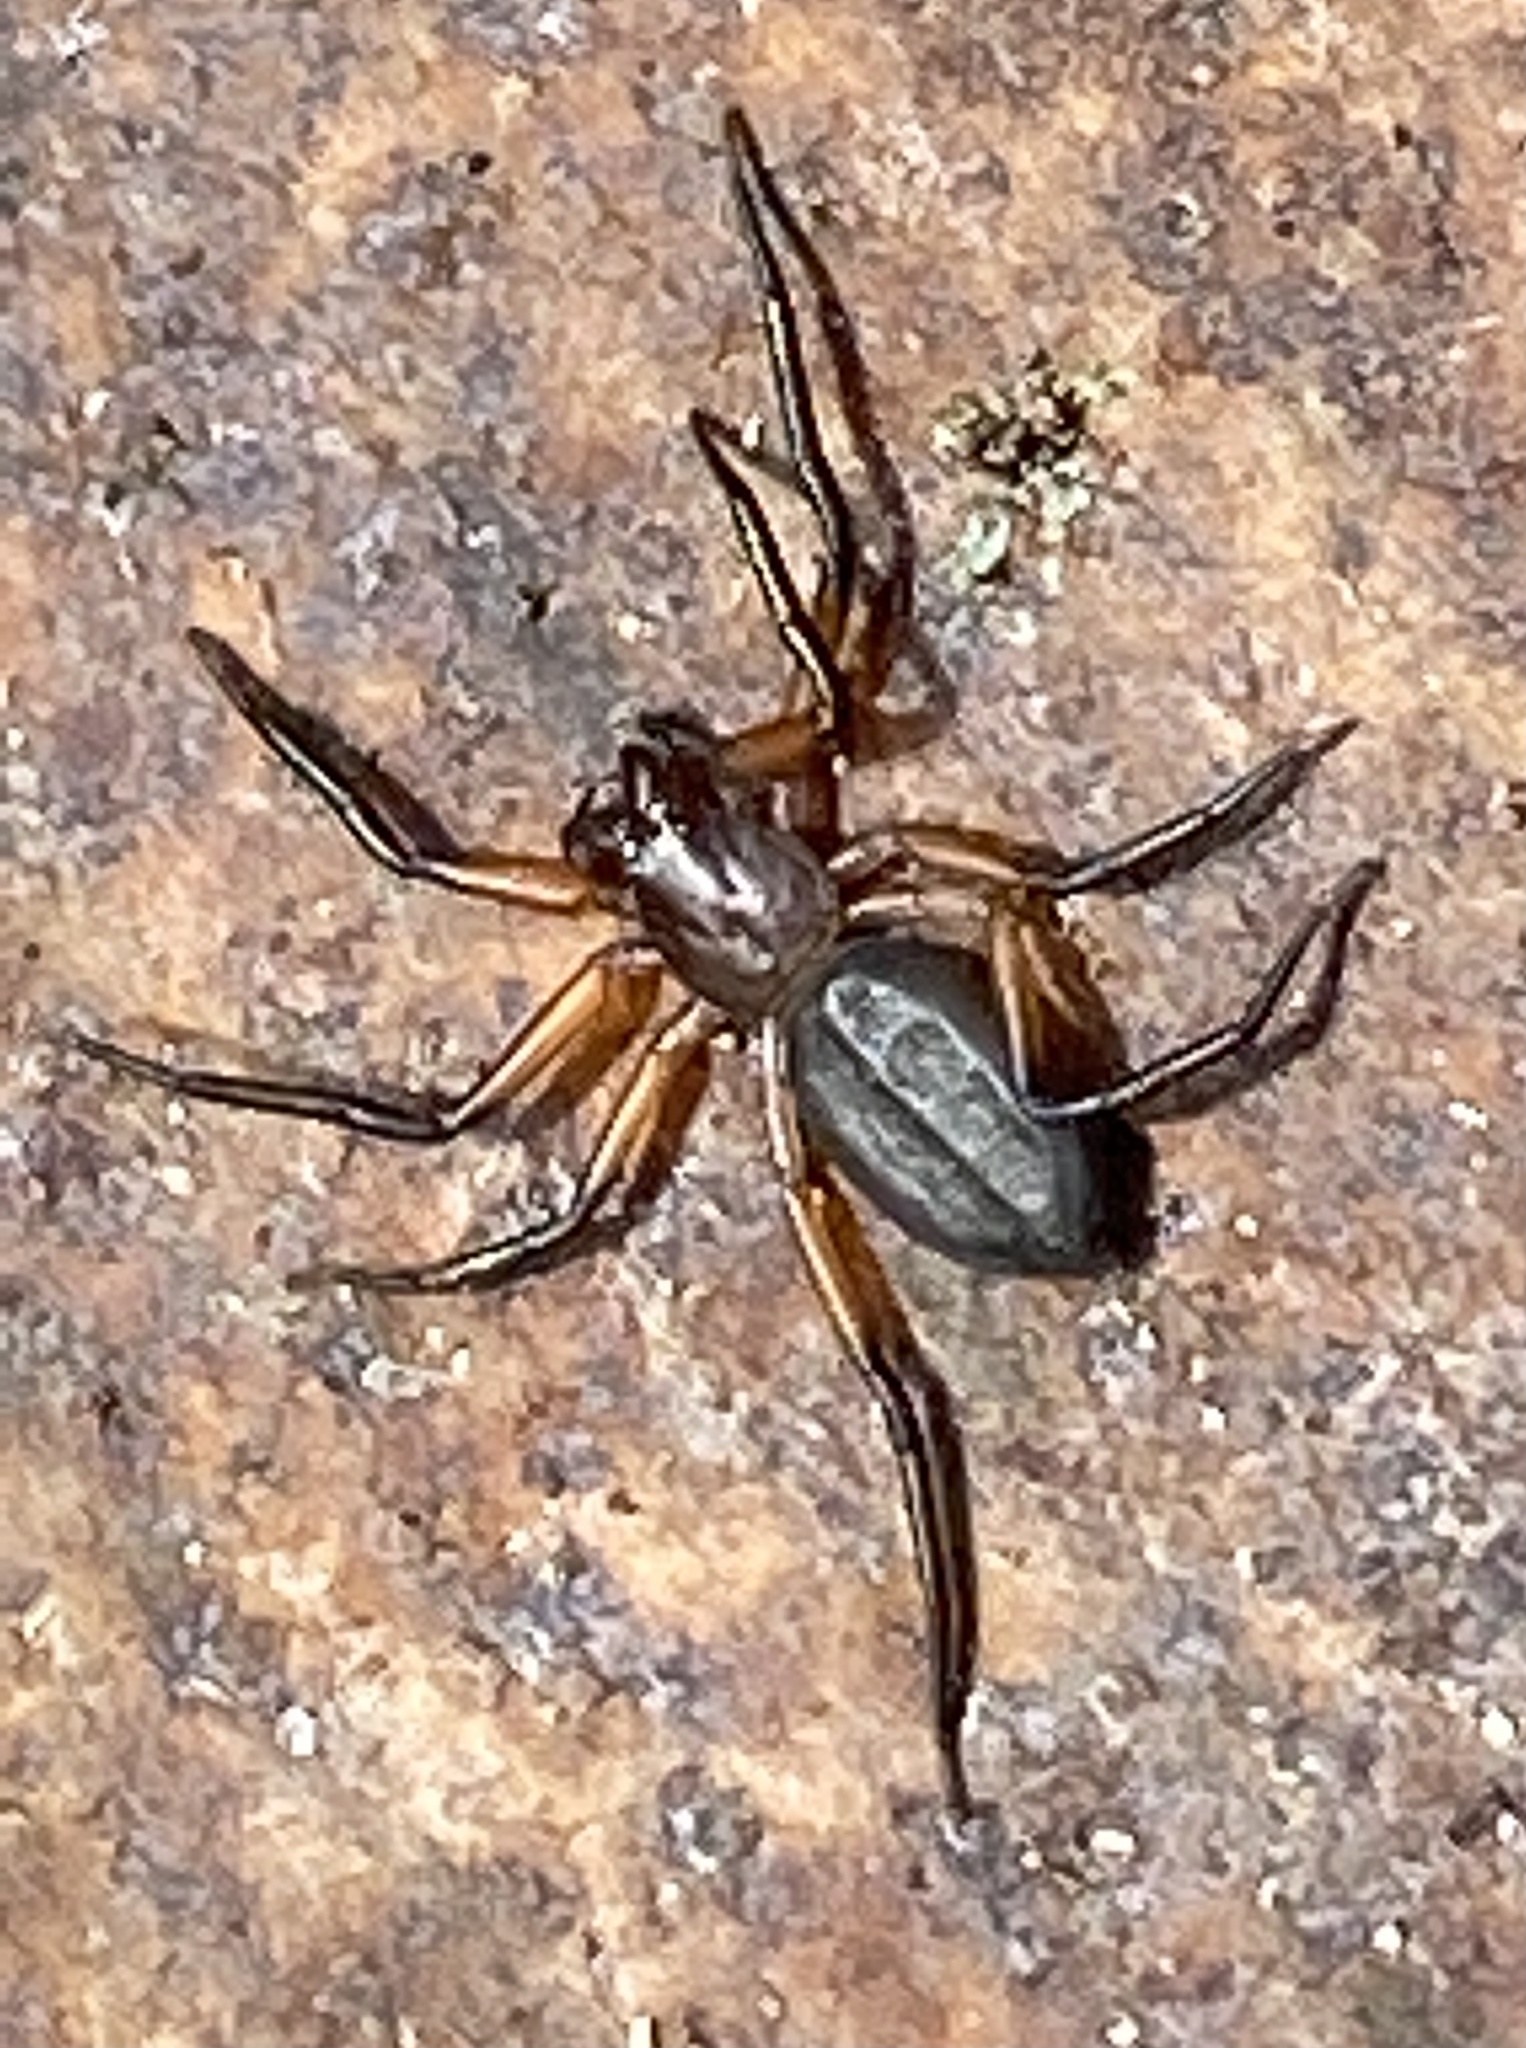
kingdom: Animalia
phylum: Arthropoda
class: Arachnida
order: Araneae
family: Trochanteriidae
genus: Platyoides
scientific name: Platyoides walteri
